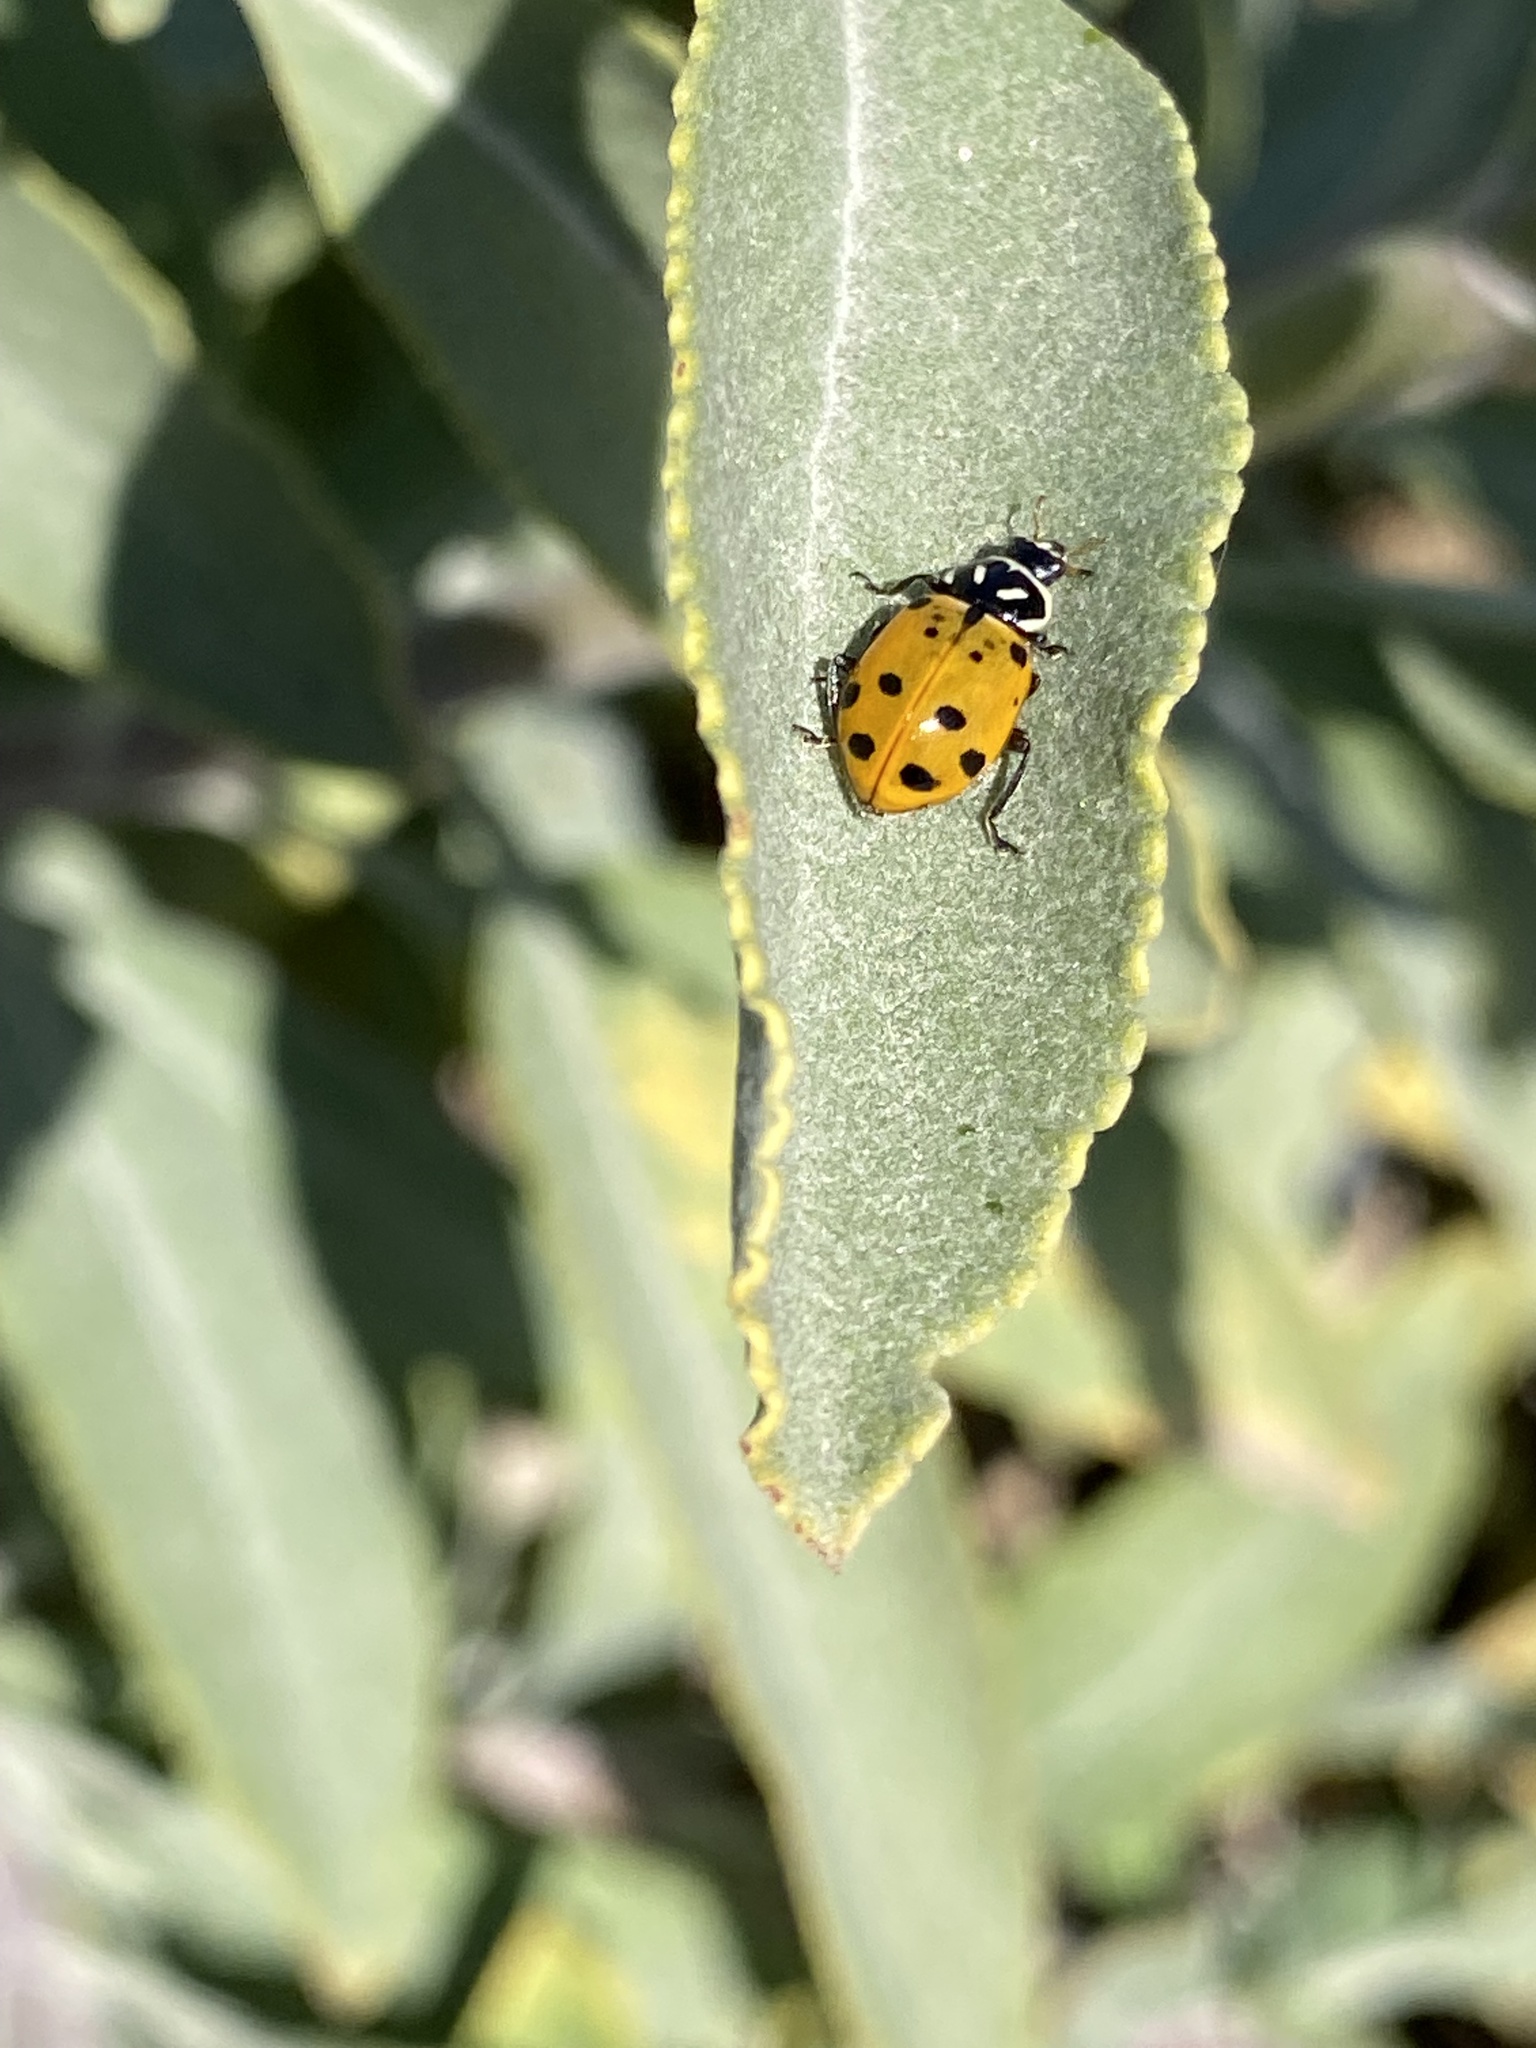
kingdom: Animalia
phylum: Arthropoda
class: Insecta
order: Coleoptera
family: Coccinellidae
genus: Hippodamia
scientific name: Hippodamia convergens
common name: Convergent lady beetle
